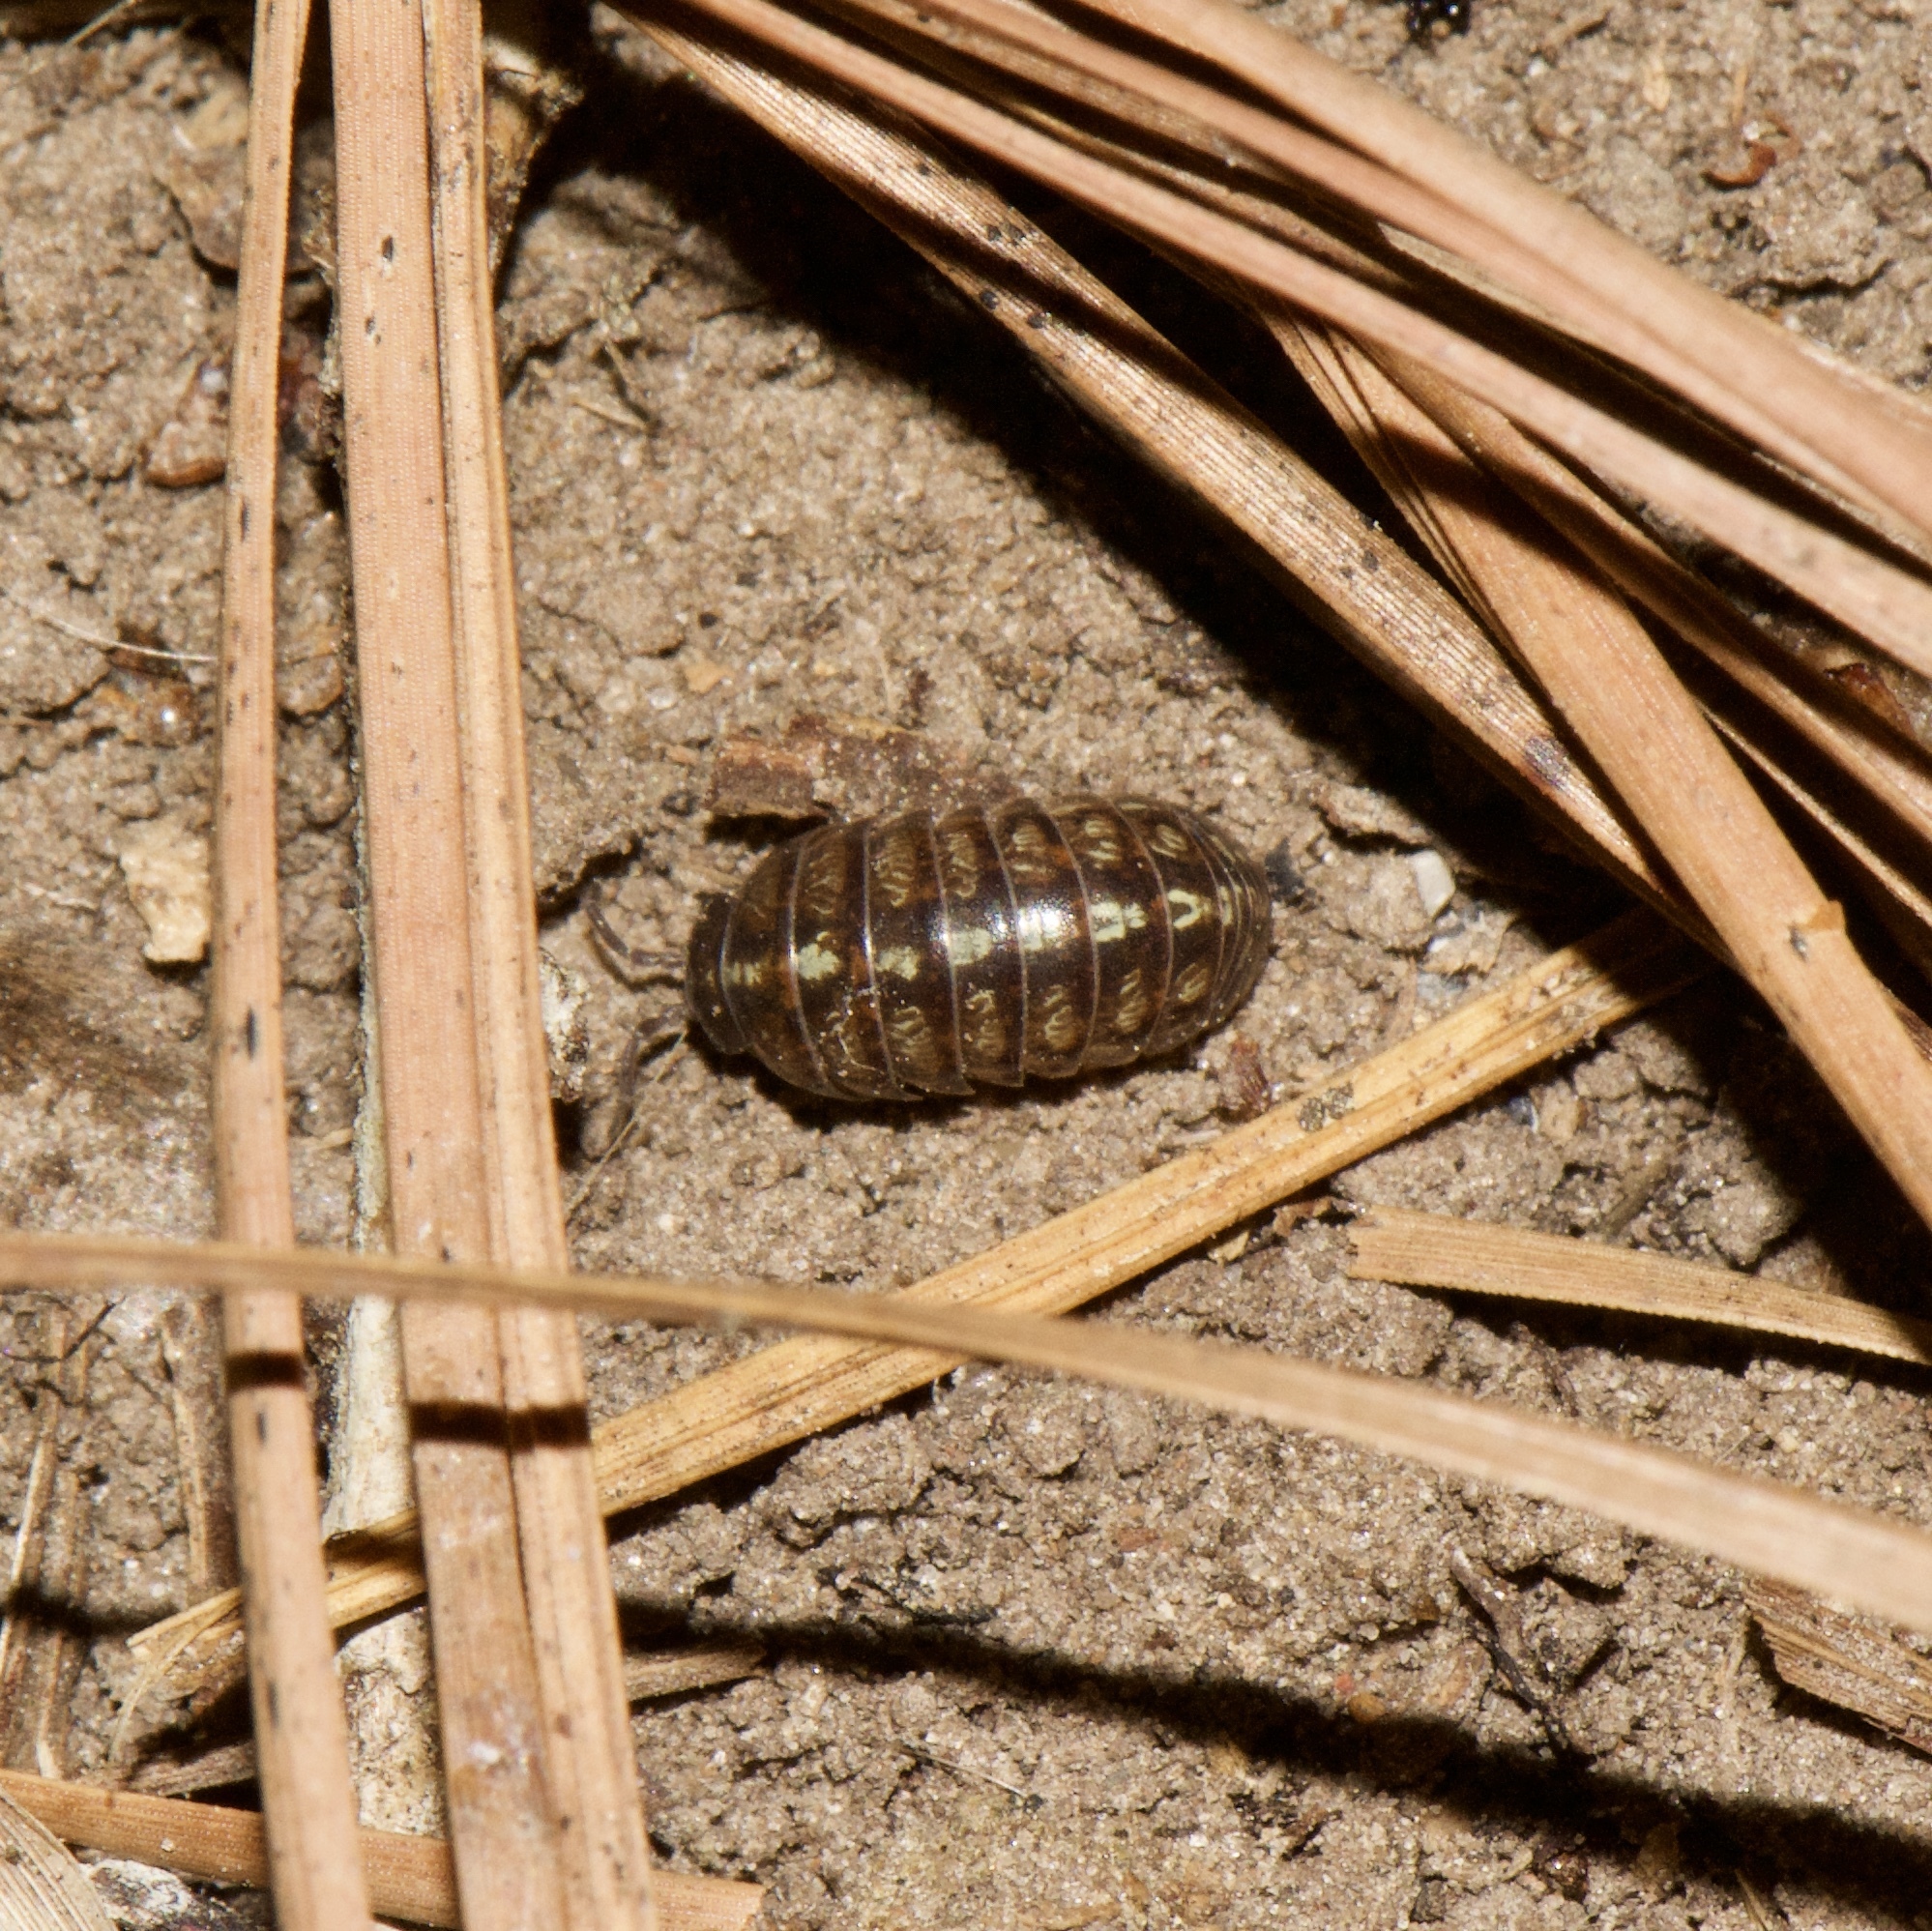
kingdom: Animalia
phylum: Arthropoda
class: Malacostraca
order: Isopoda
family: Armadillidiidae
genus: Armadillidium
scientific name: Armadillidium vulgare
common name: Common pill woodlouse
